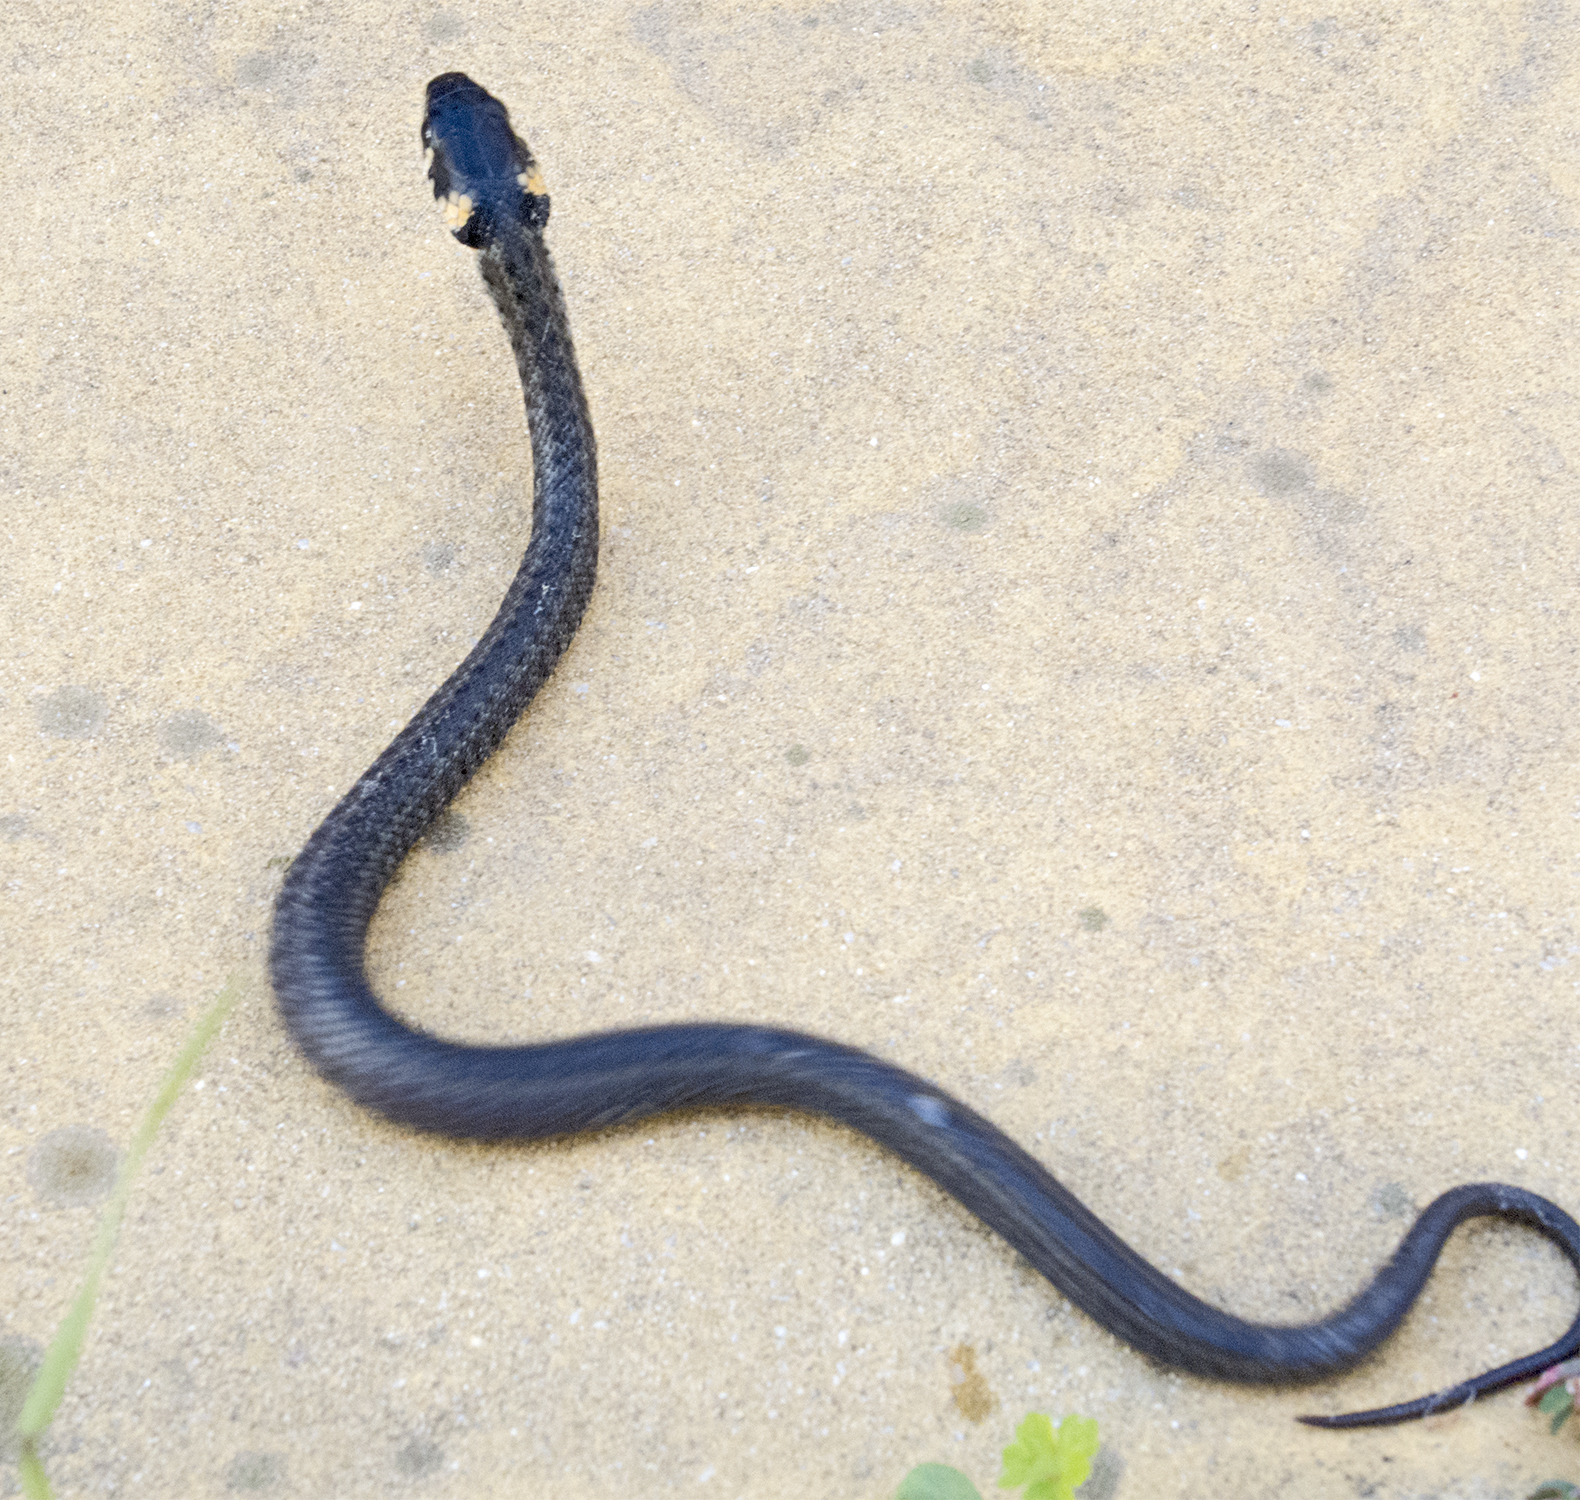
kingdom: Animalia
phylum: Chordata
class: Squamata
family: Colubridae
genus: Natrix
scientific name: Natrix natrix
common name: Grass snake
